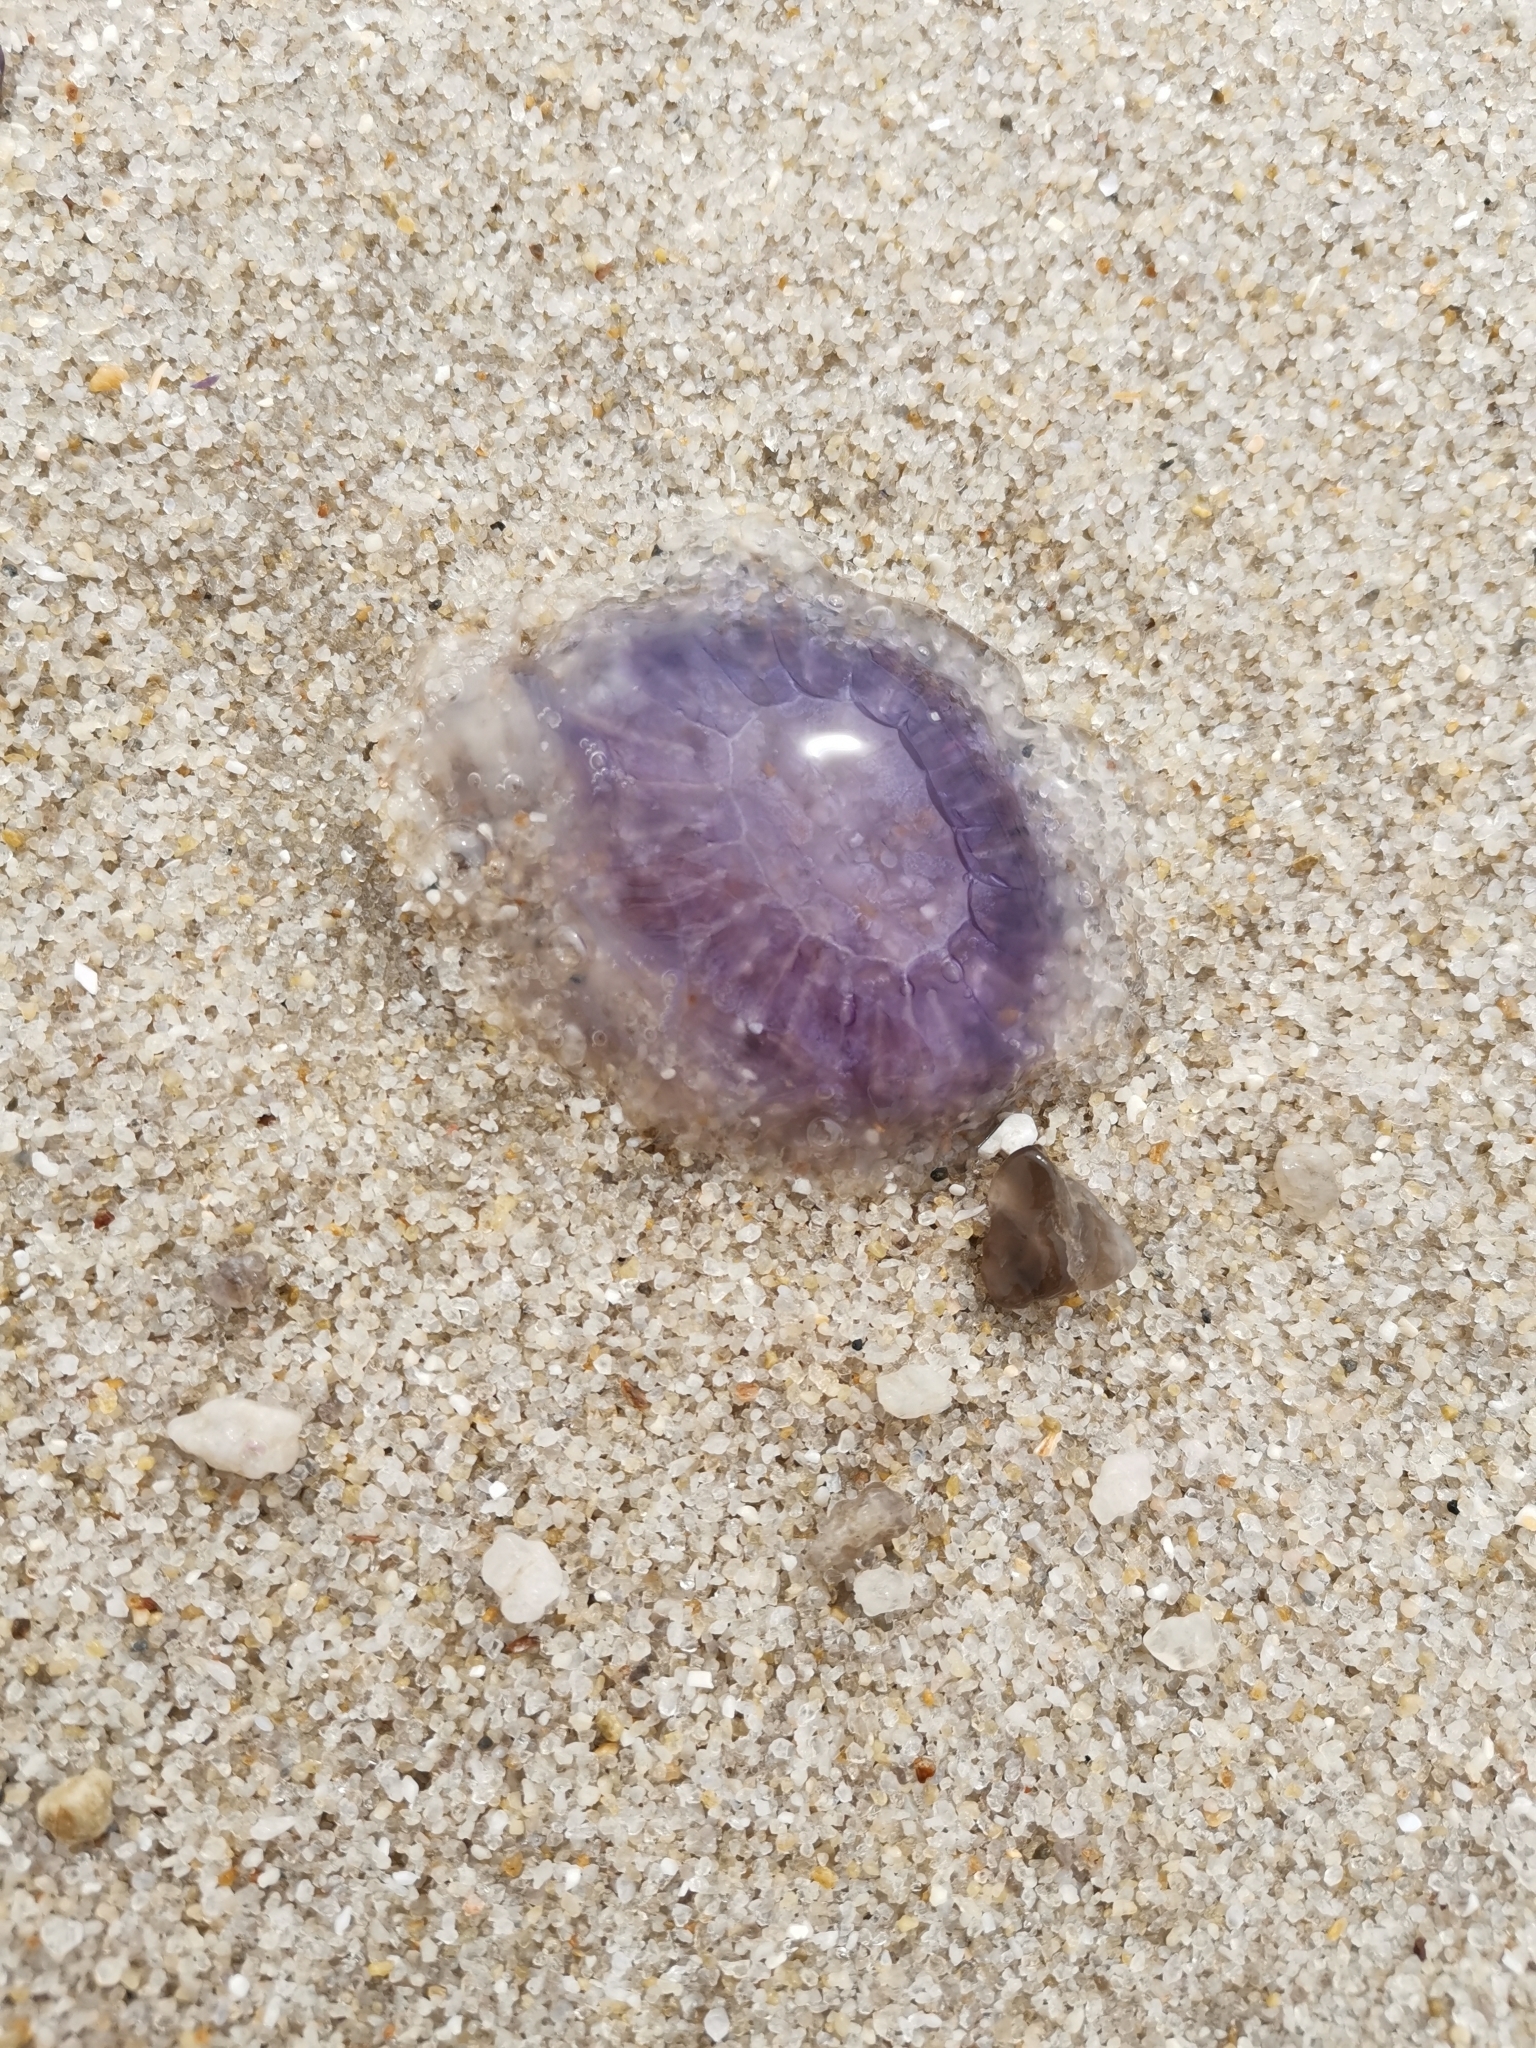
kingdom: Animalia
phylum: Cnidaria
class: Scyphozoa
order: Semaeostomeae
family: Cyaneidae
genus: Cyanea
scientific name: Cyanea lamarckii
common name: Blue jellyfish
